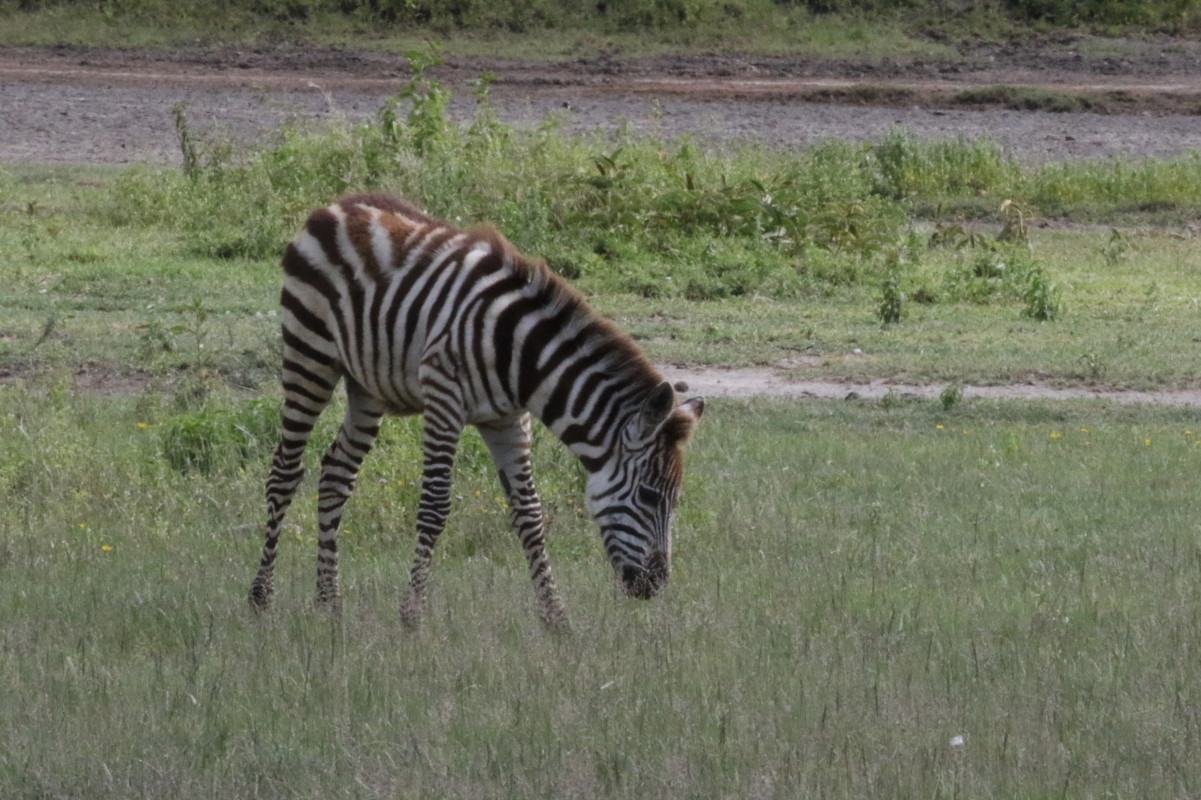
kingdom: Animalia
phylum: Chordata
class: Mammalia
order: Perissodactyla
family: Equidae
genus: Equus
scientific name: Equus quagga
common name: Plains zebra
